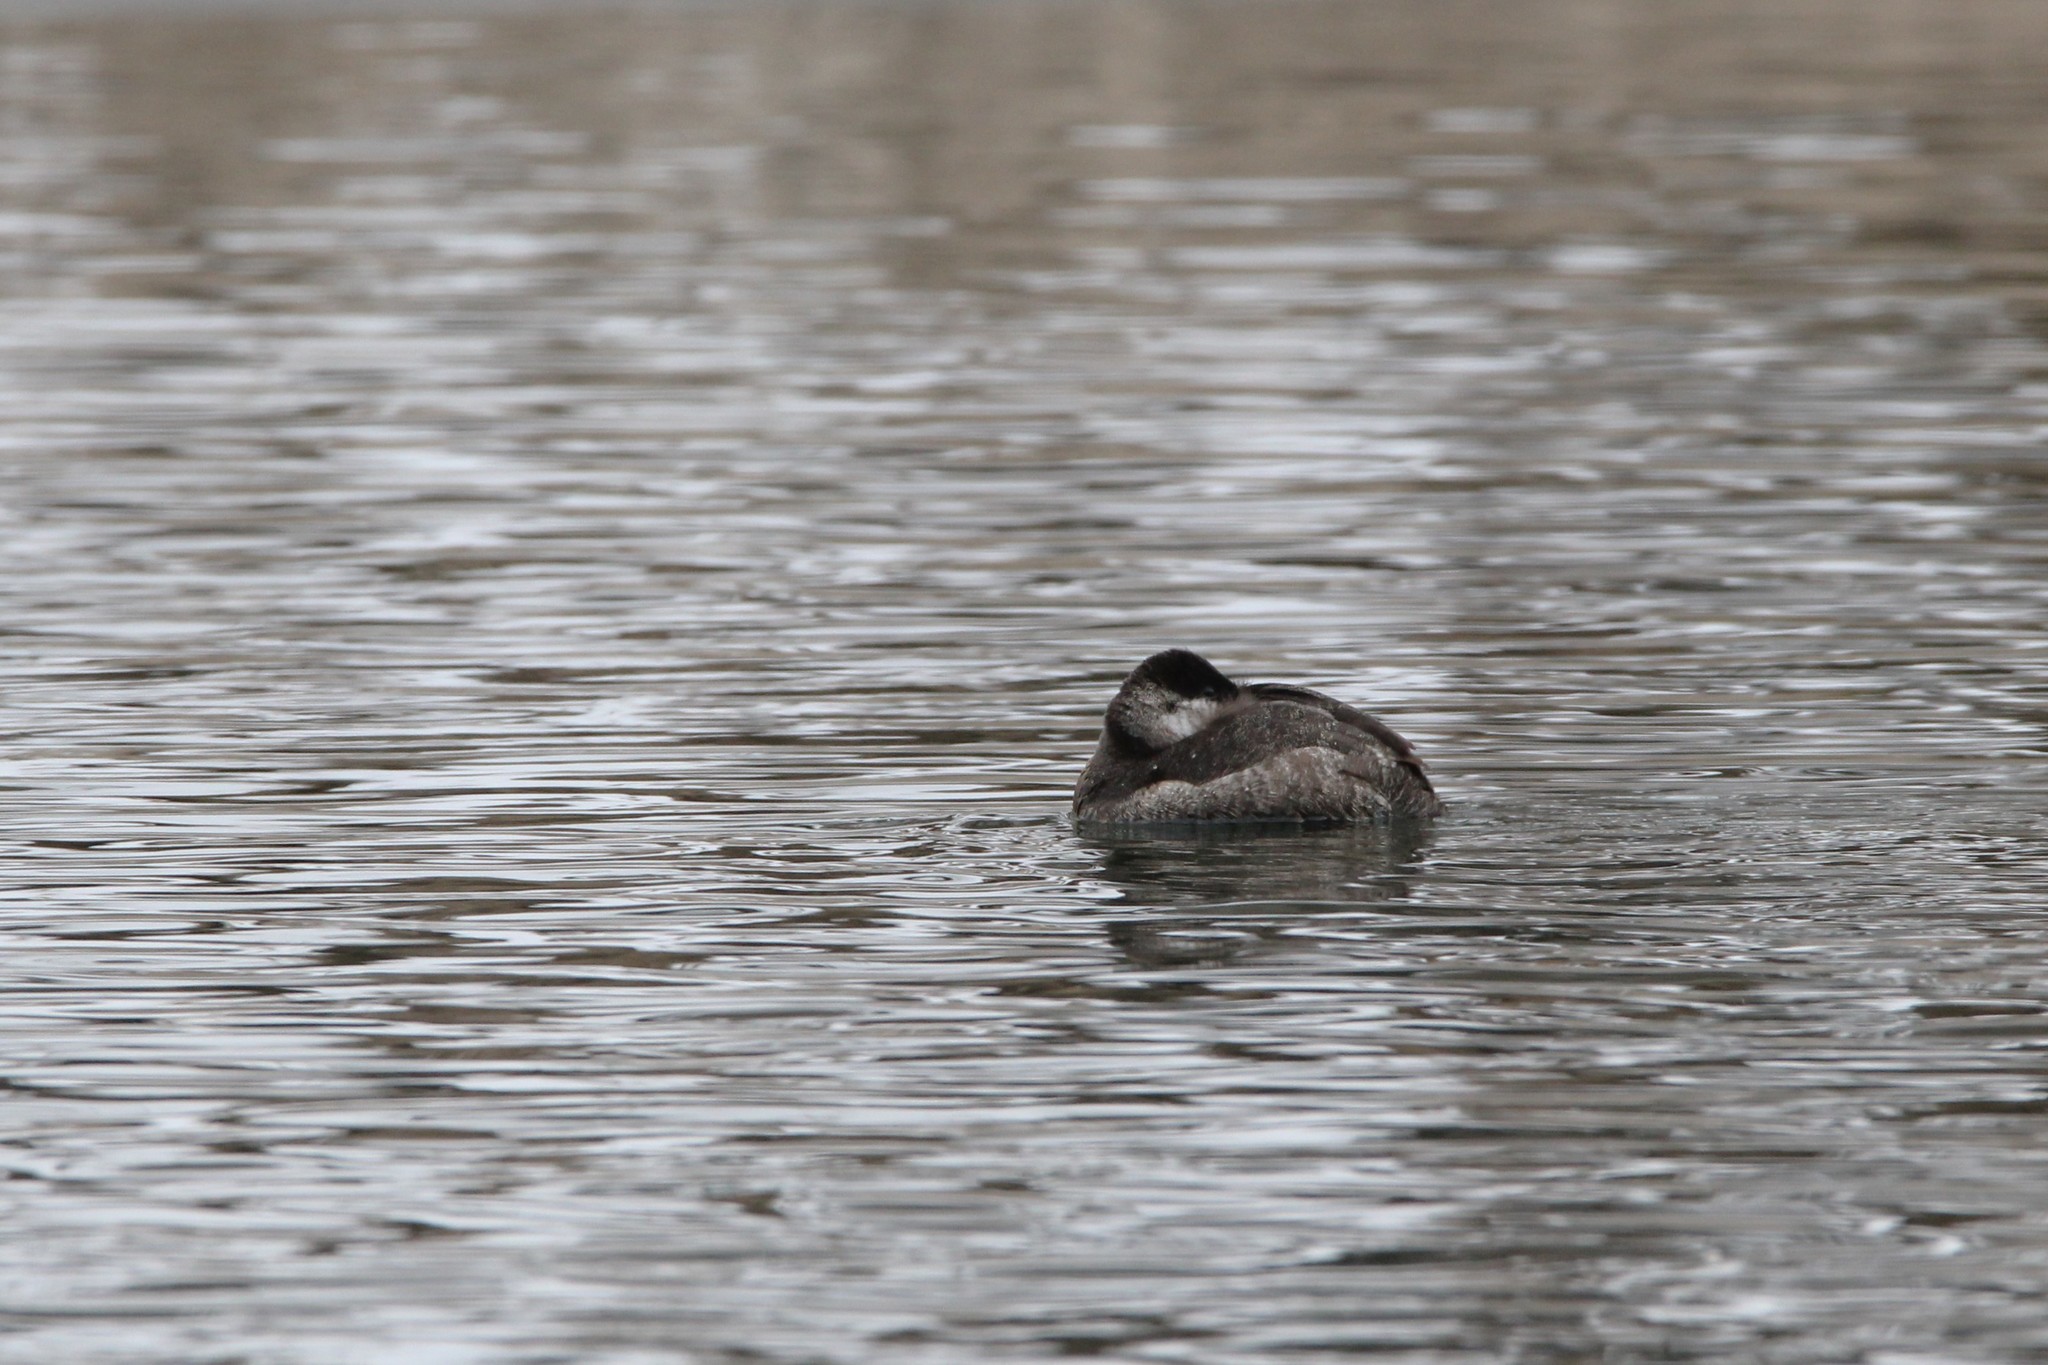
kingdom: Animalia
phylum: Chordata
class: Aves
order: Anseriformes
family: Anatidae
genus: Oxyura
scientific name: Oxyura jamaicensis
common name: Ruddy duck
